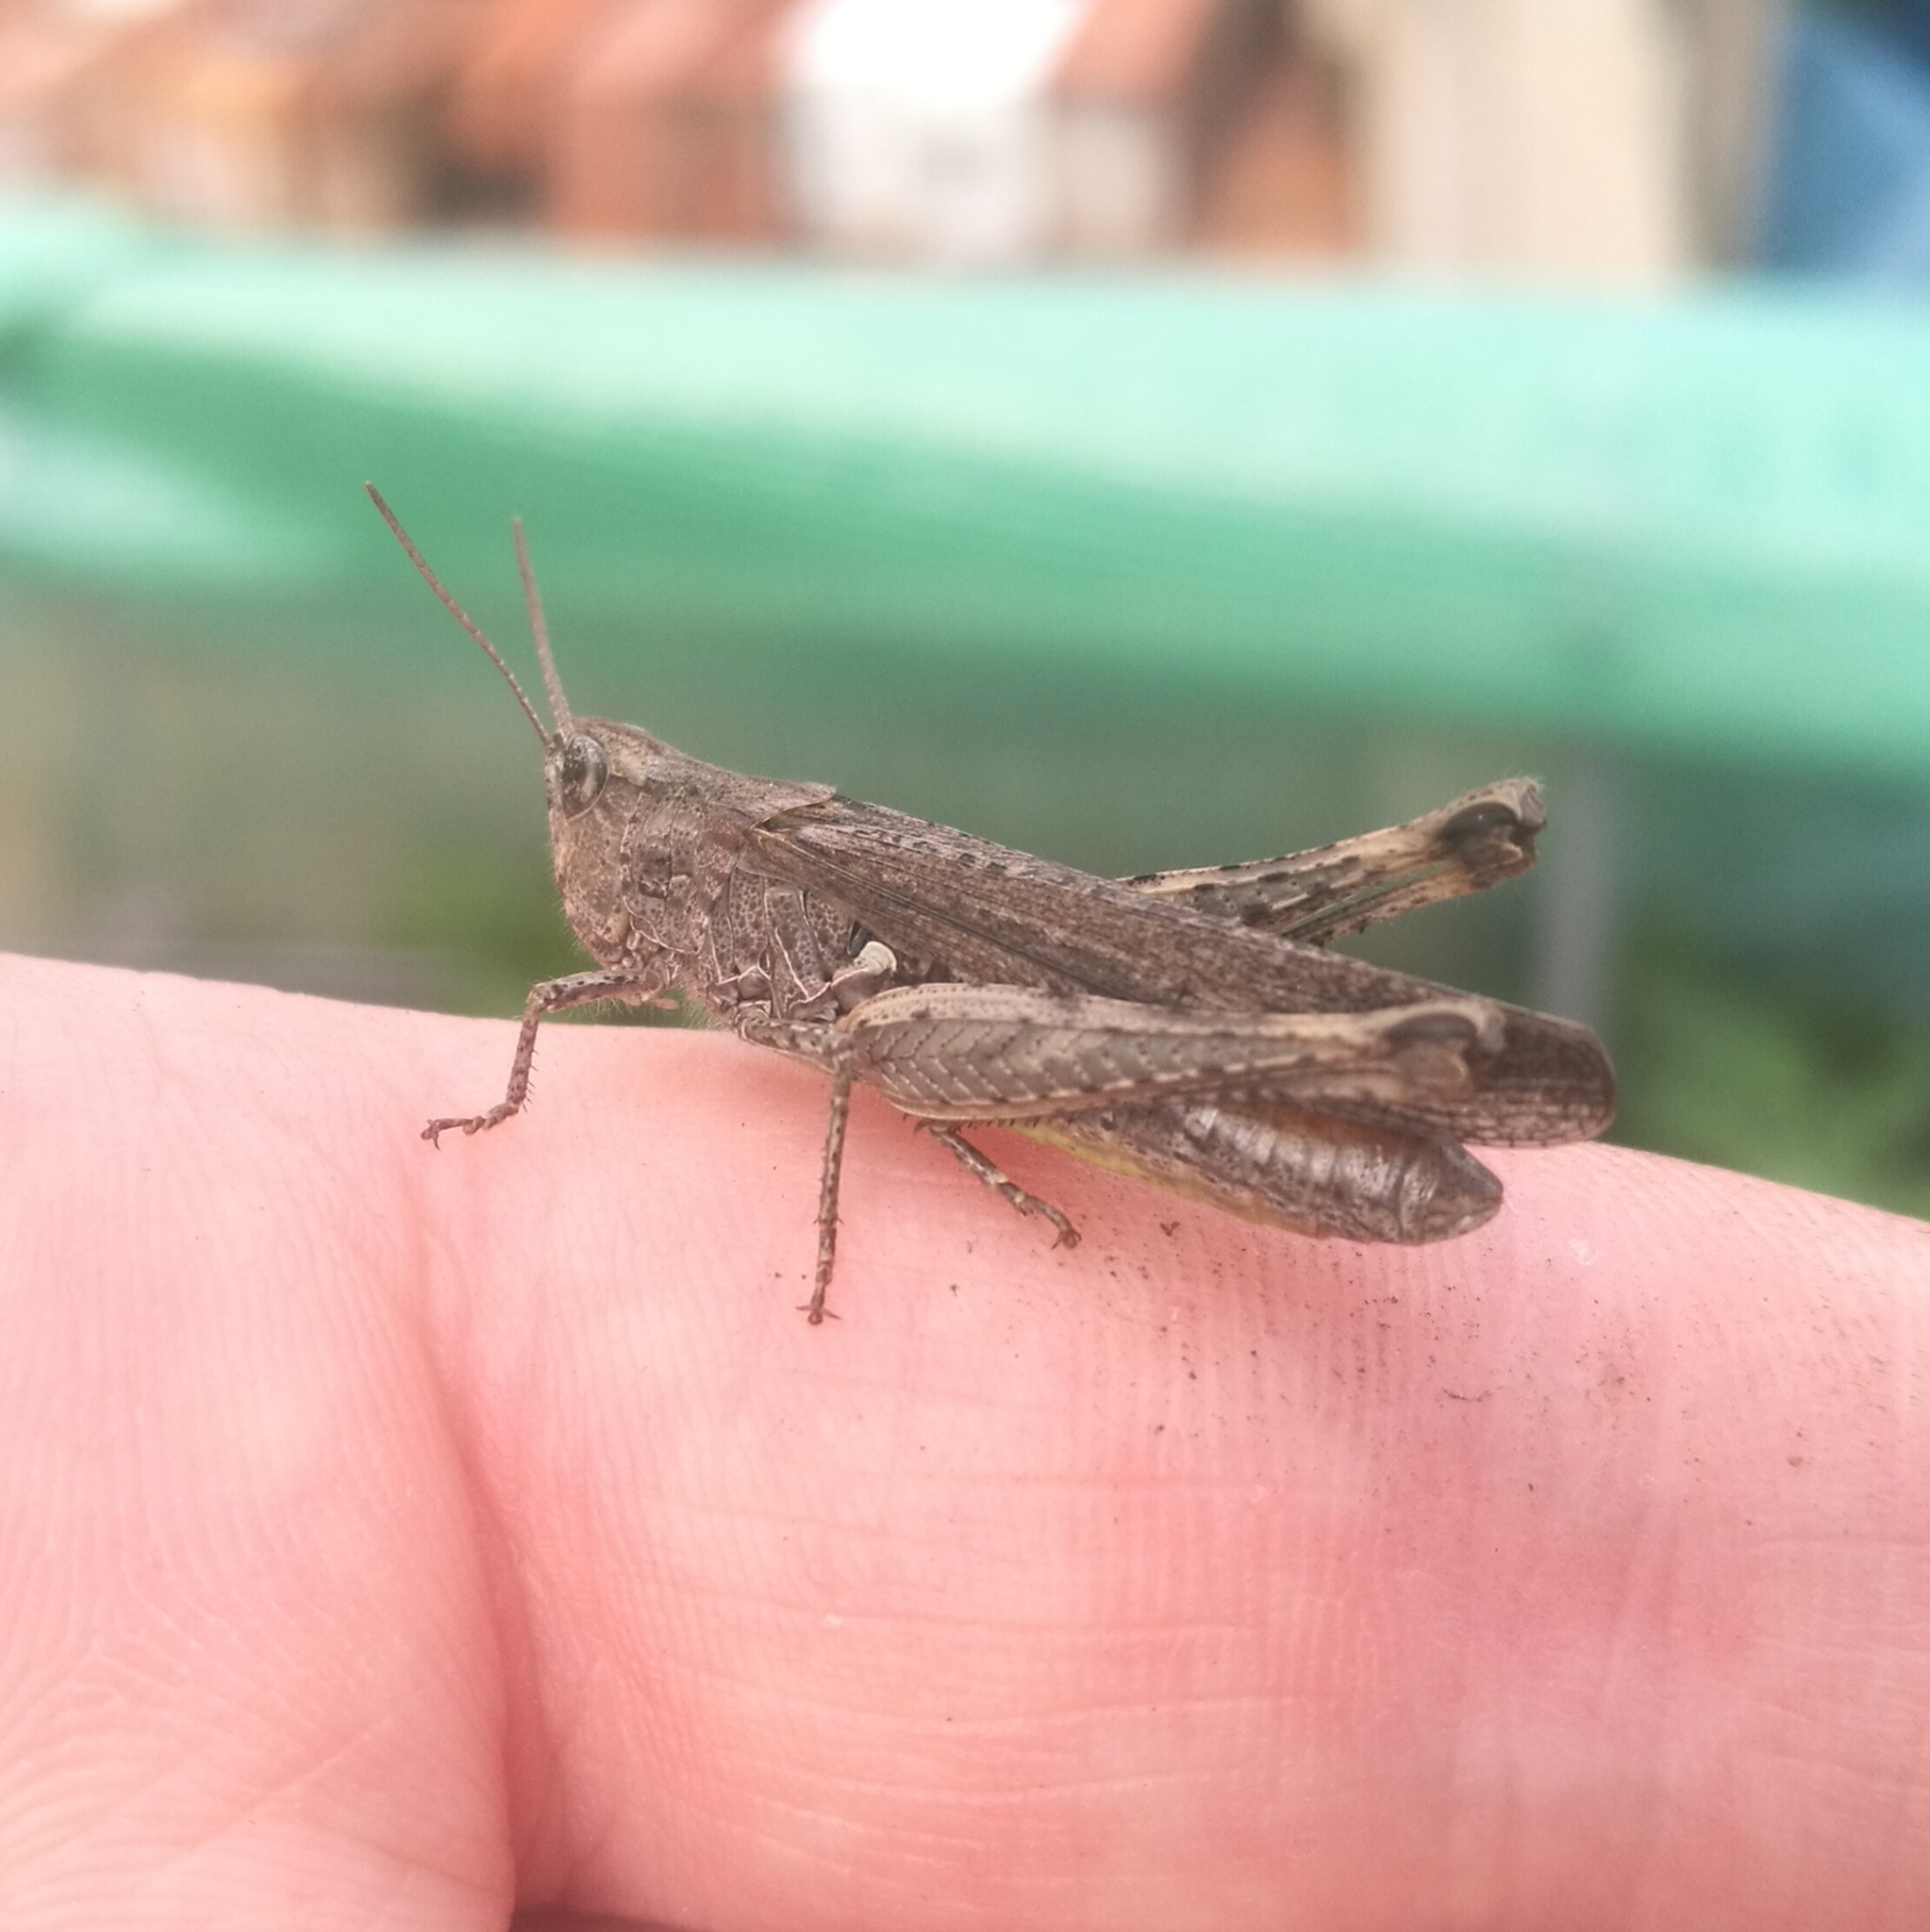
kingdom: Animalia
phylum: Arthropoda
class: Insecta
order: Orthoptera
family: Acrididae
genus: Chorthippus
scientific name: Chorthippus brunneus
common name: Field grasshopper
